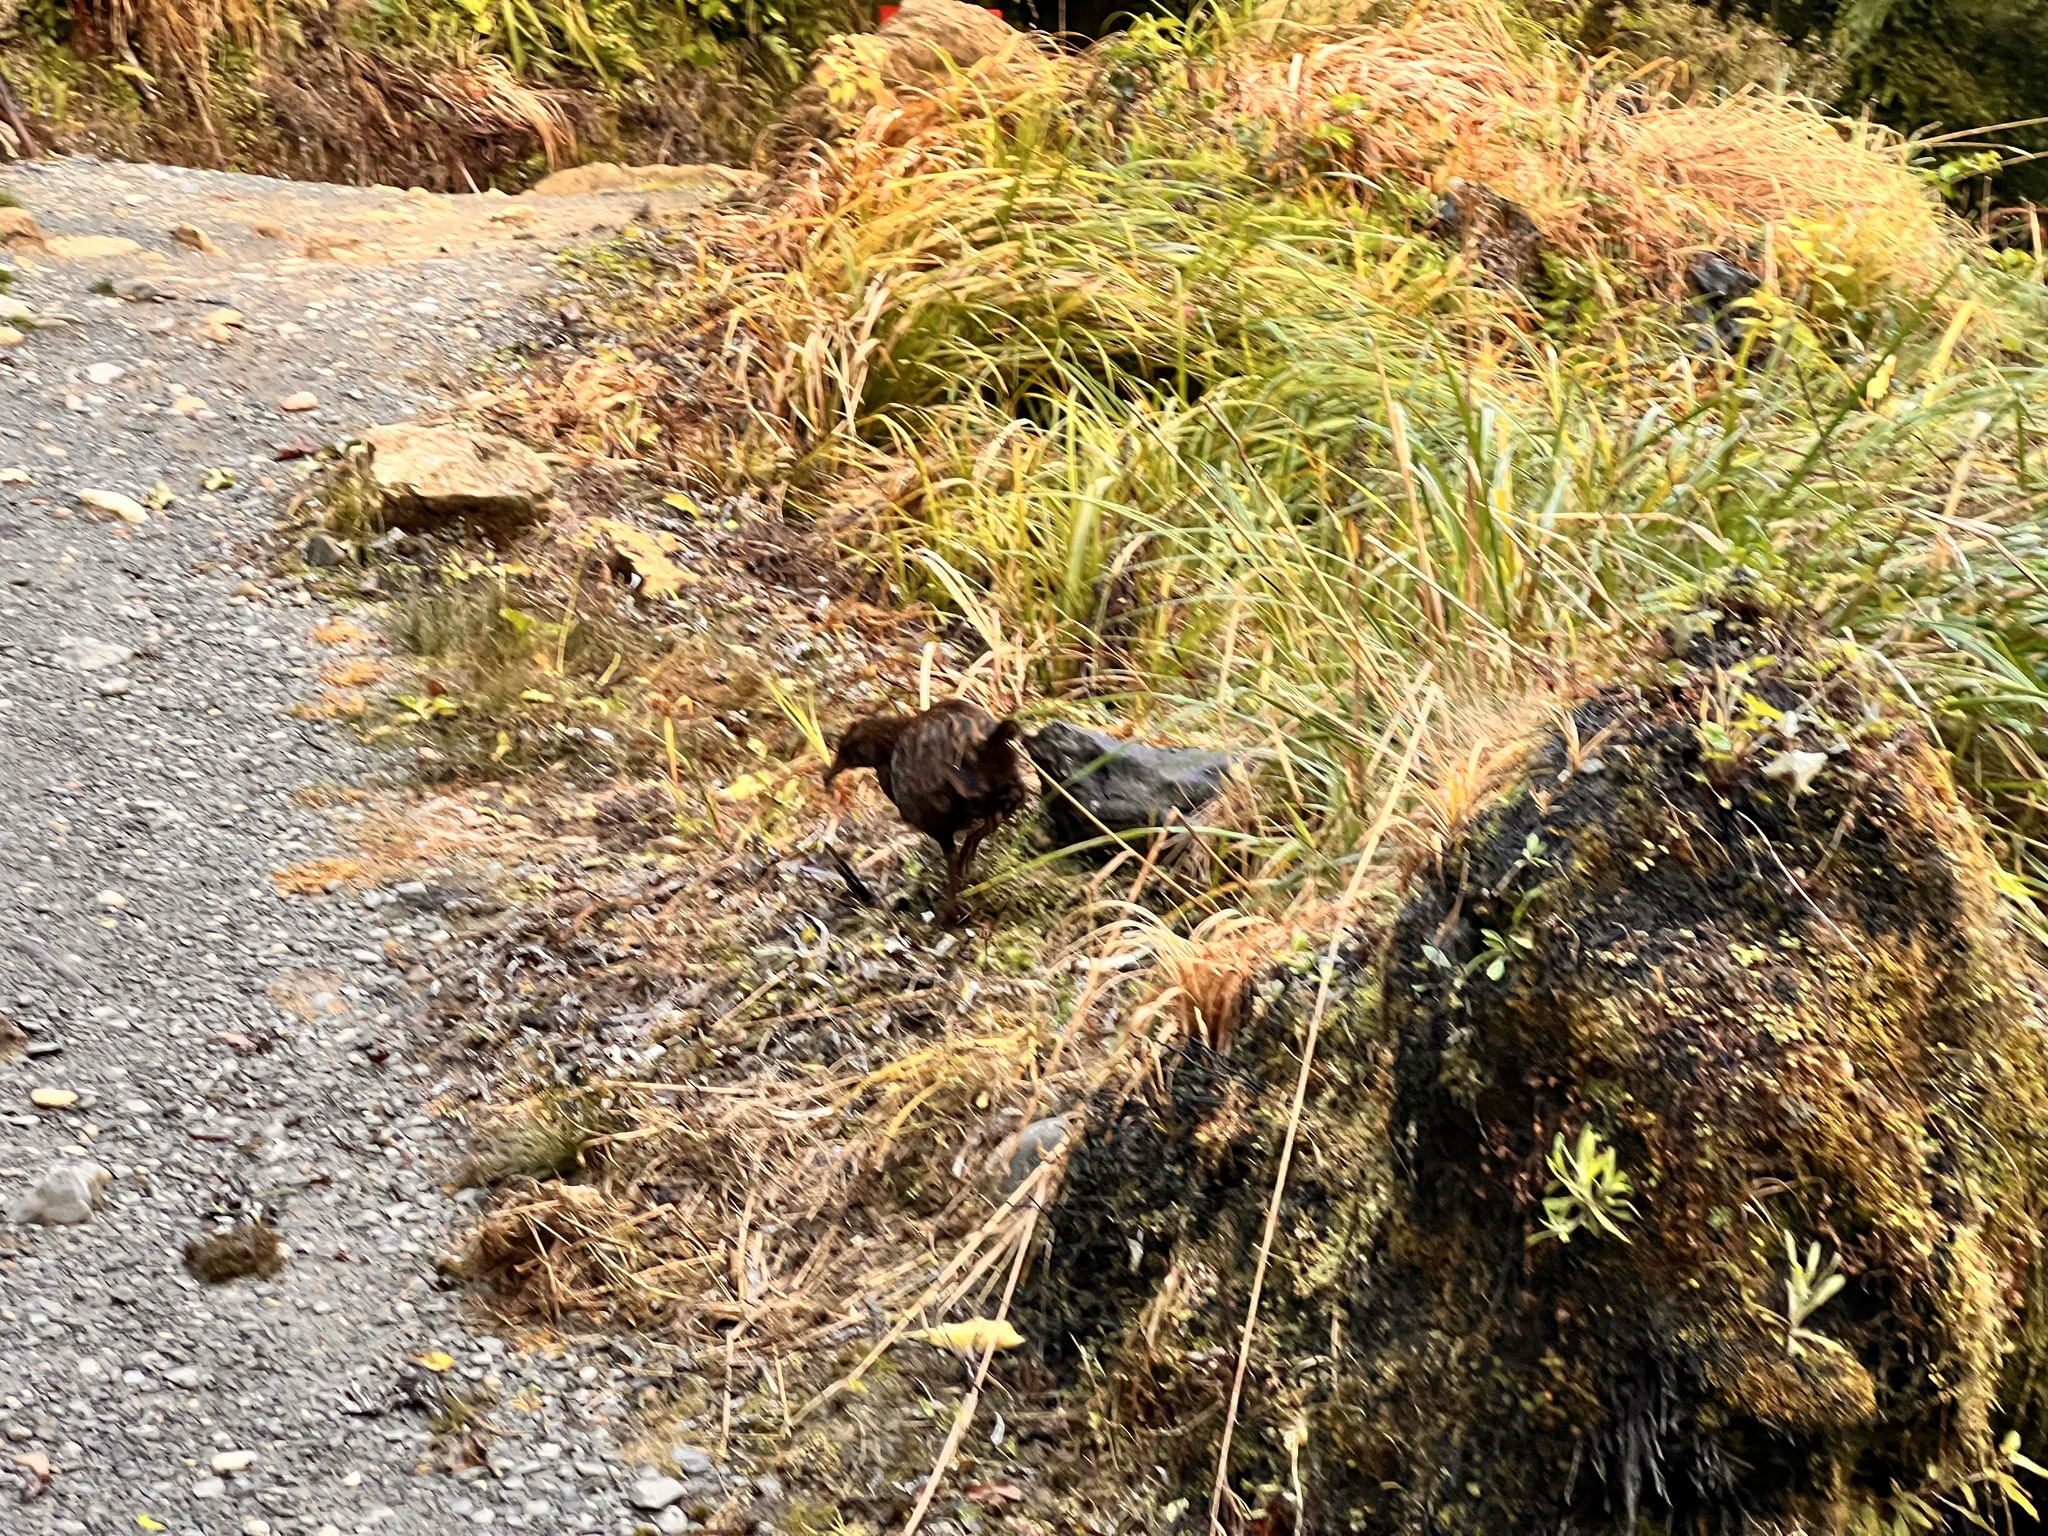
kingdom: Animalia
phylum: Chordata
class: Aves
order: Gruiformes
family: Rallidae
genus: Gallirallus
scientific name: Gallirallus australis
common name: Weka
